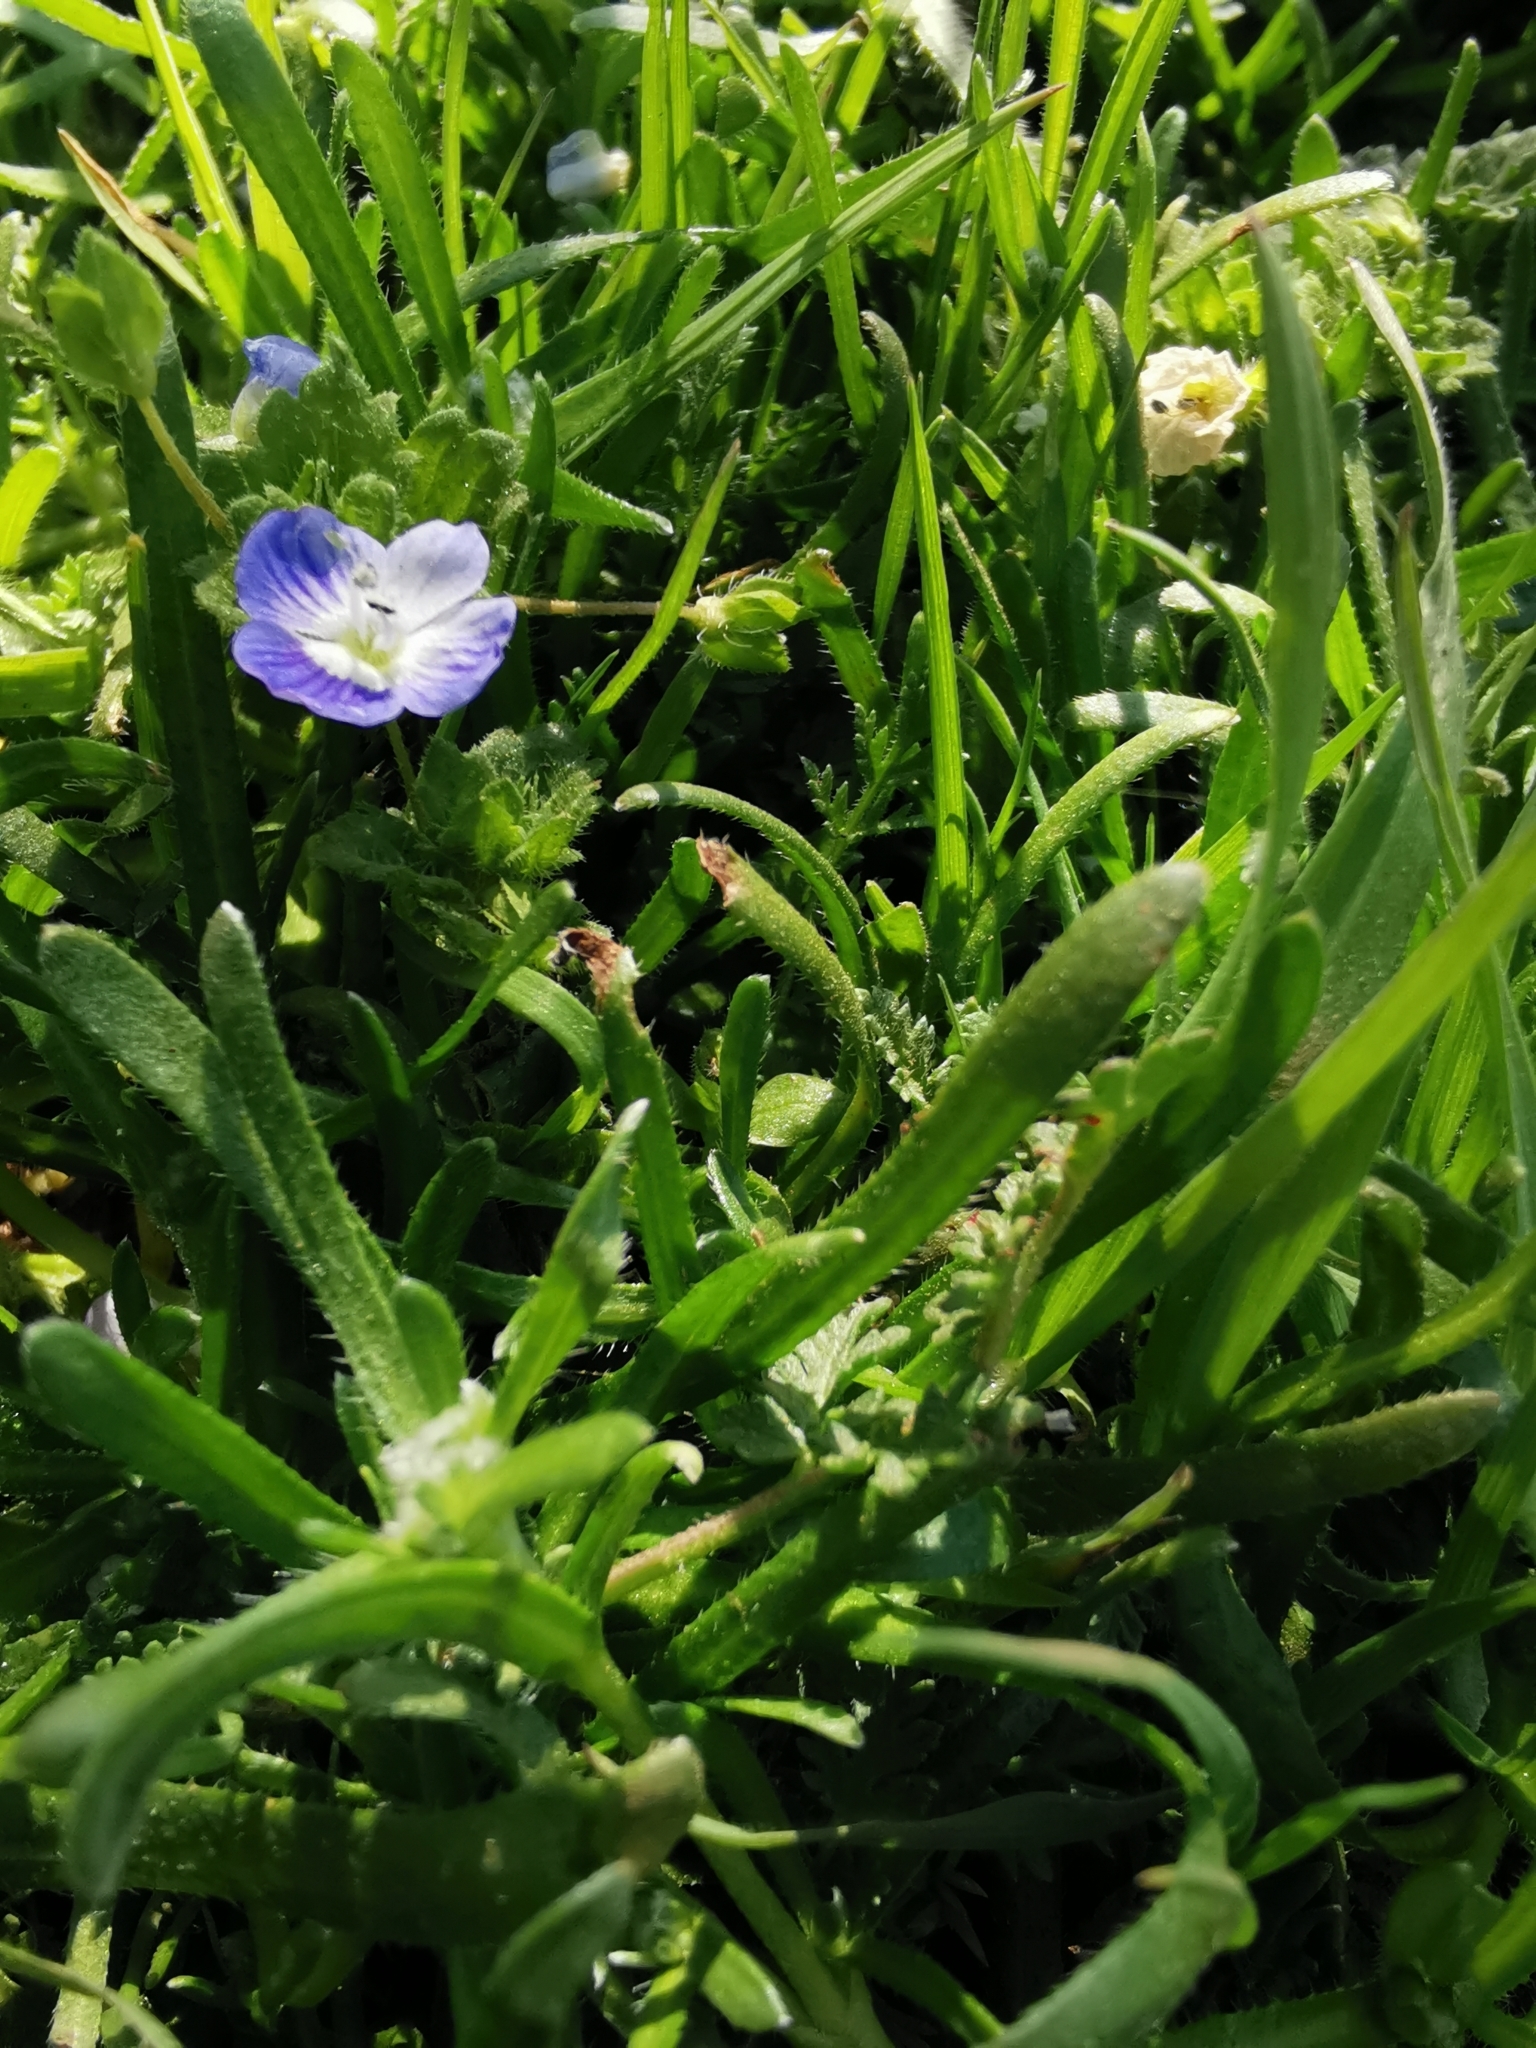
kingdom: Plantae
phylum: Tracheophyta
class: Magnoliopsida
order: Lamiales
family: Plantaginaceae
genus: Veronica
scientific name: Veronica persica
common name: Common field-speedwell
